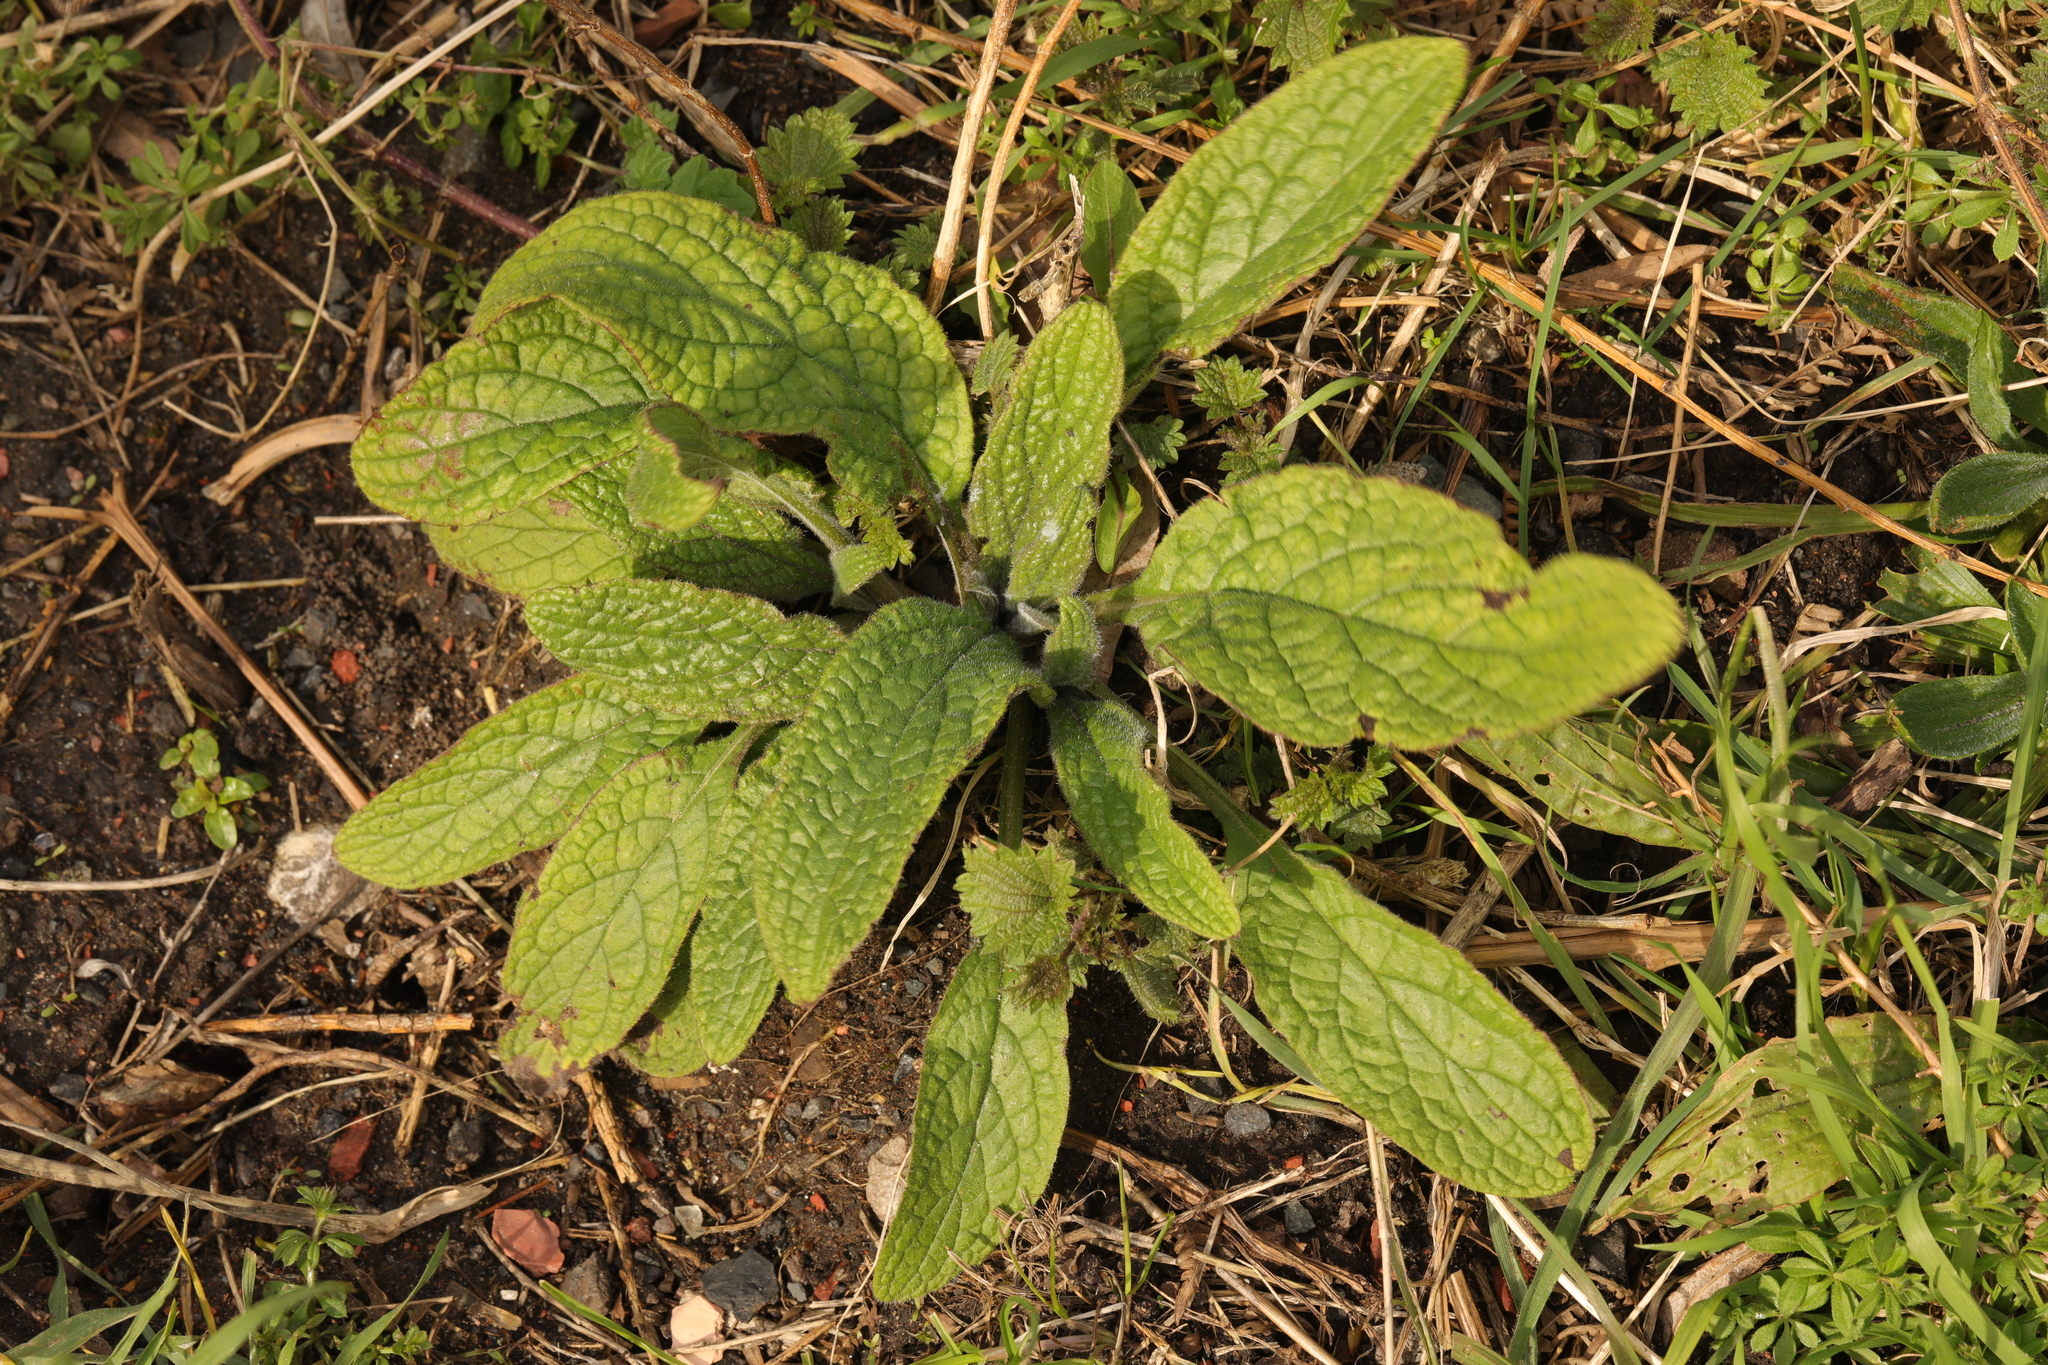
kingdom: Plantae
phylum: Tracheophyta
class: Magnoliopsida
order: Boraginales
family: Boraginaceae
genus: Pentaglottis
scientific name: Pentaglottis sempervirens
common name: Green alkanet
